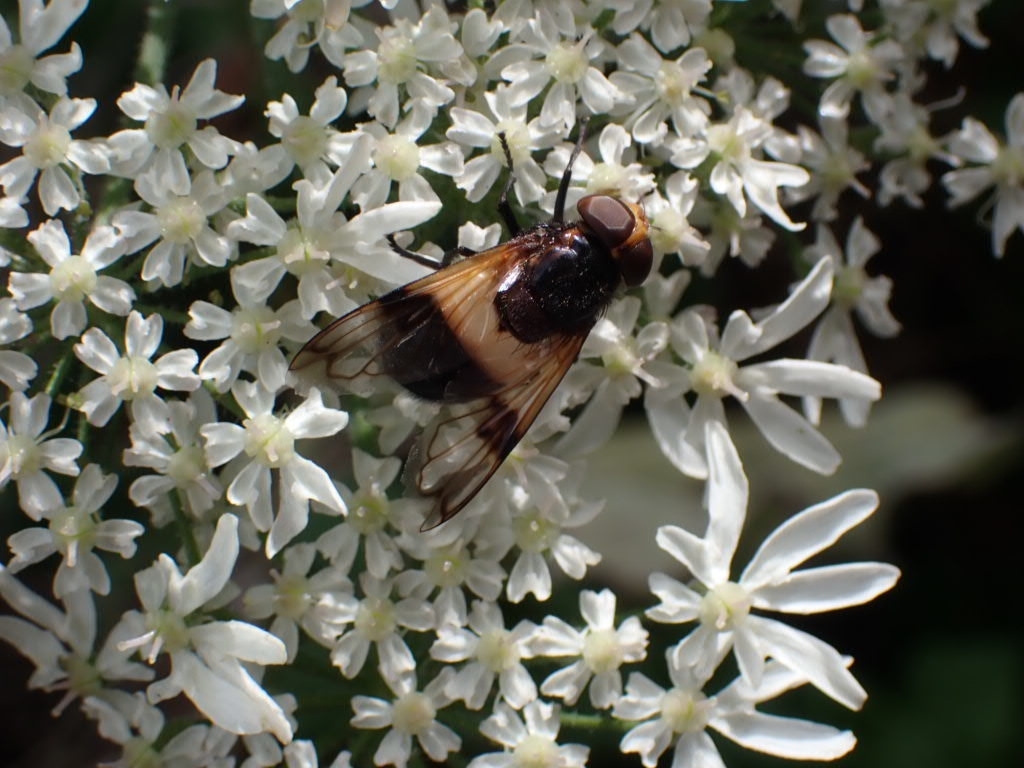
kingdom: Animalia
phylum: Arthropoda
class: Insecta
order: Diptera
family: Syrphidae
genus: Volucella
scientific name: Volucella pellucens
